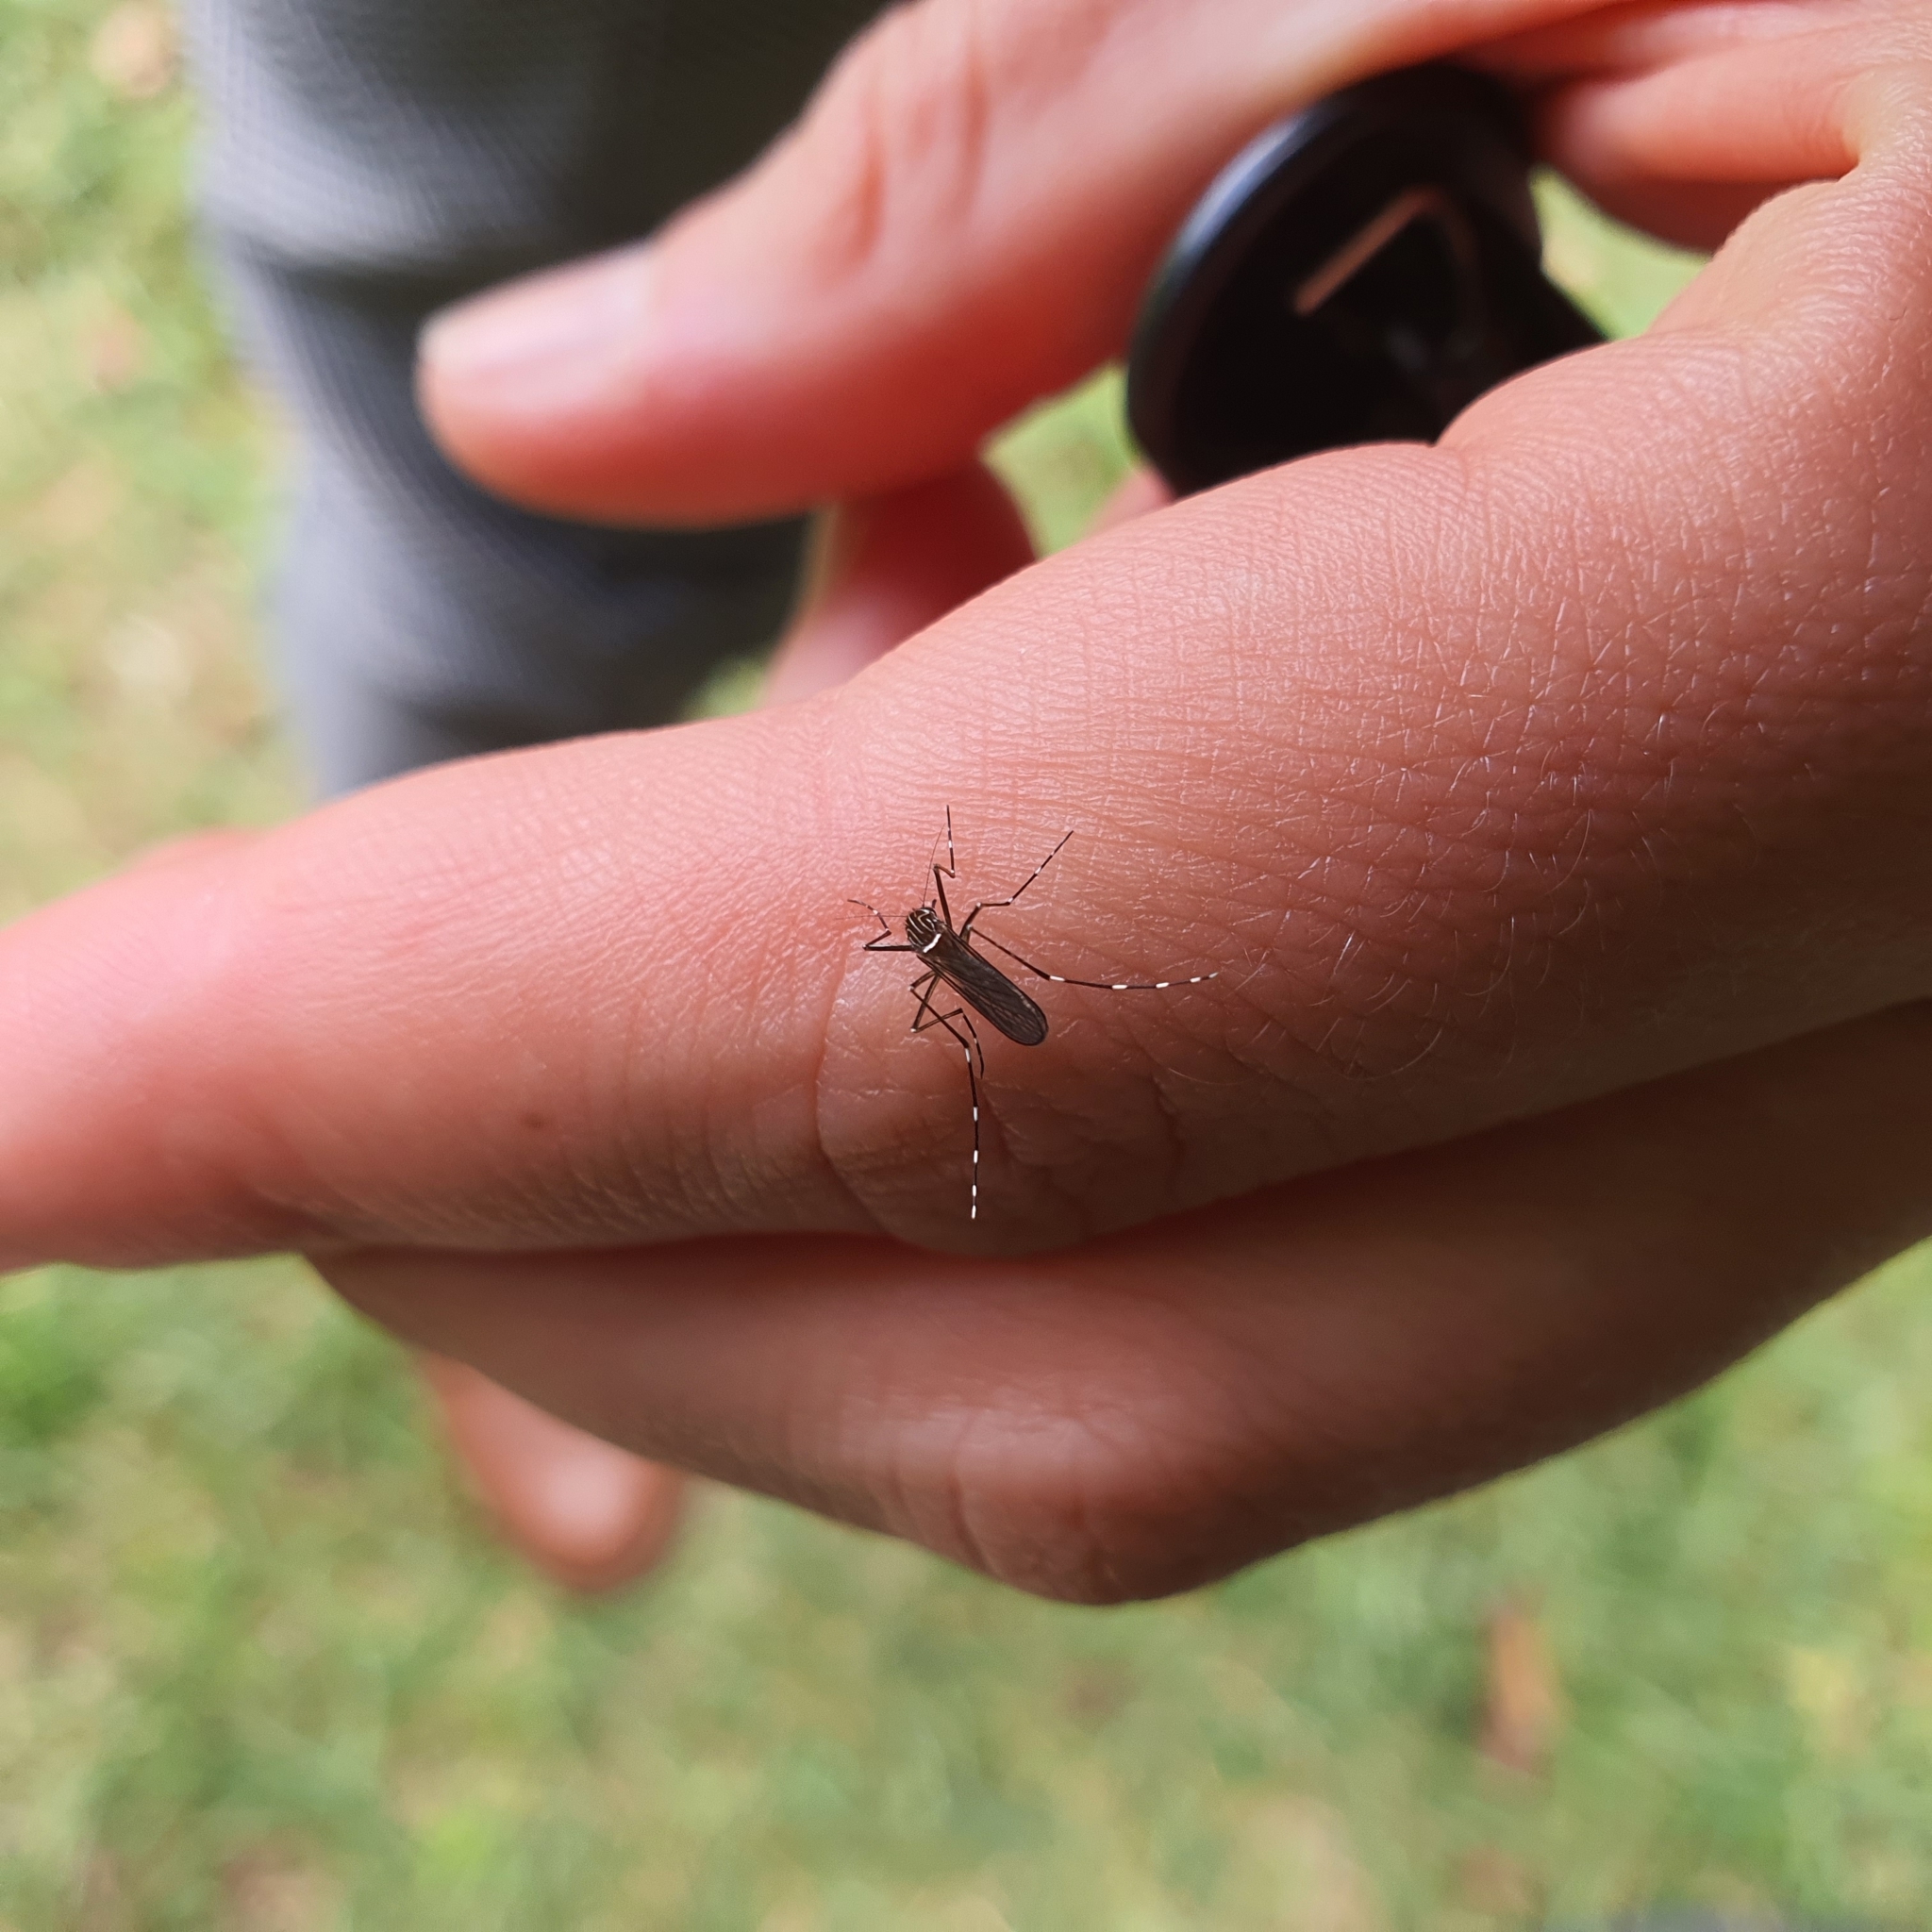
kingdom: Animalia
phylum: Arthropoda
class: Insecta
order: Diptera
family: Culicidae
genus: Aedes
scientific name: Aedes notoscriptus
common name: Australian backyard mosquito
